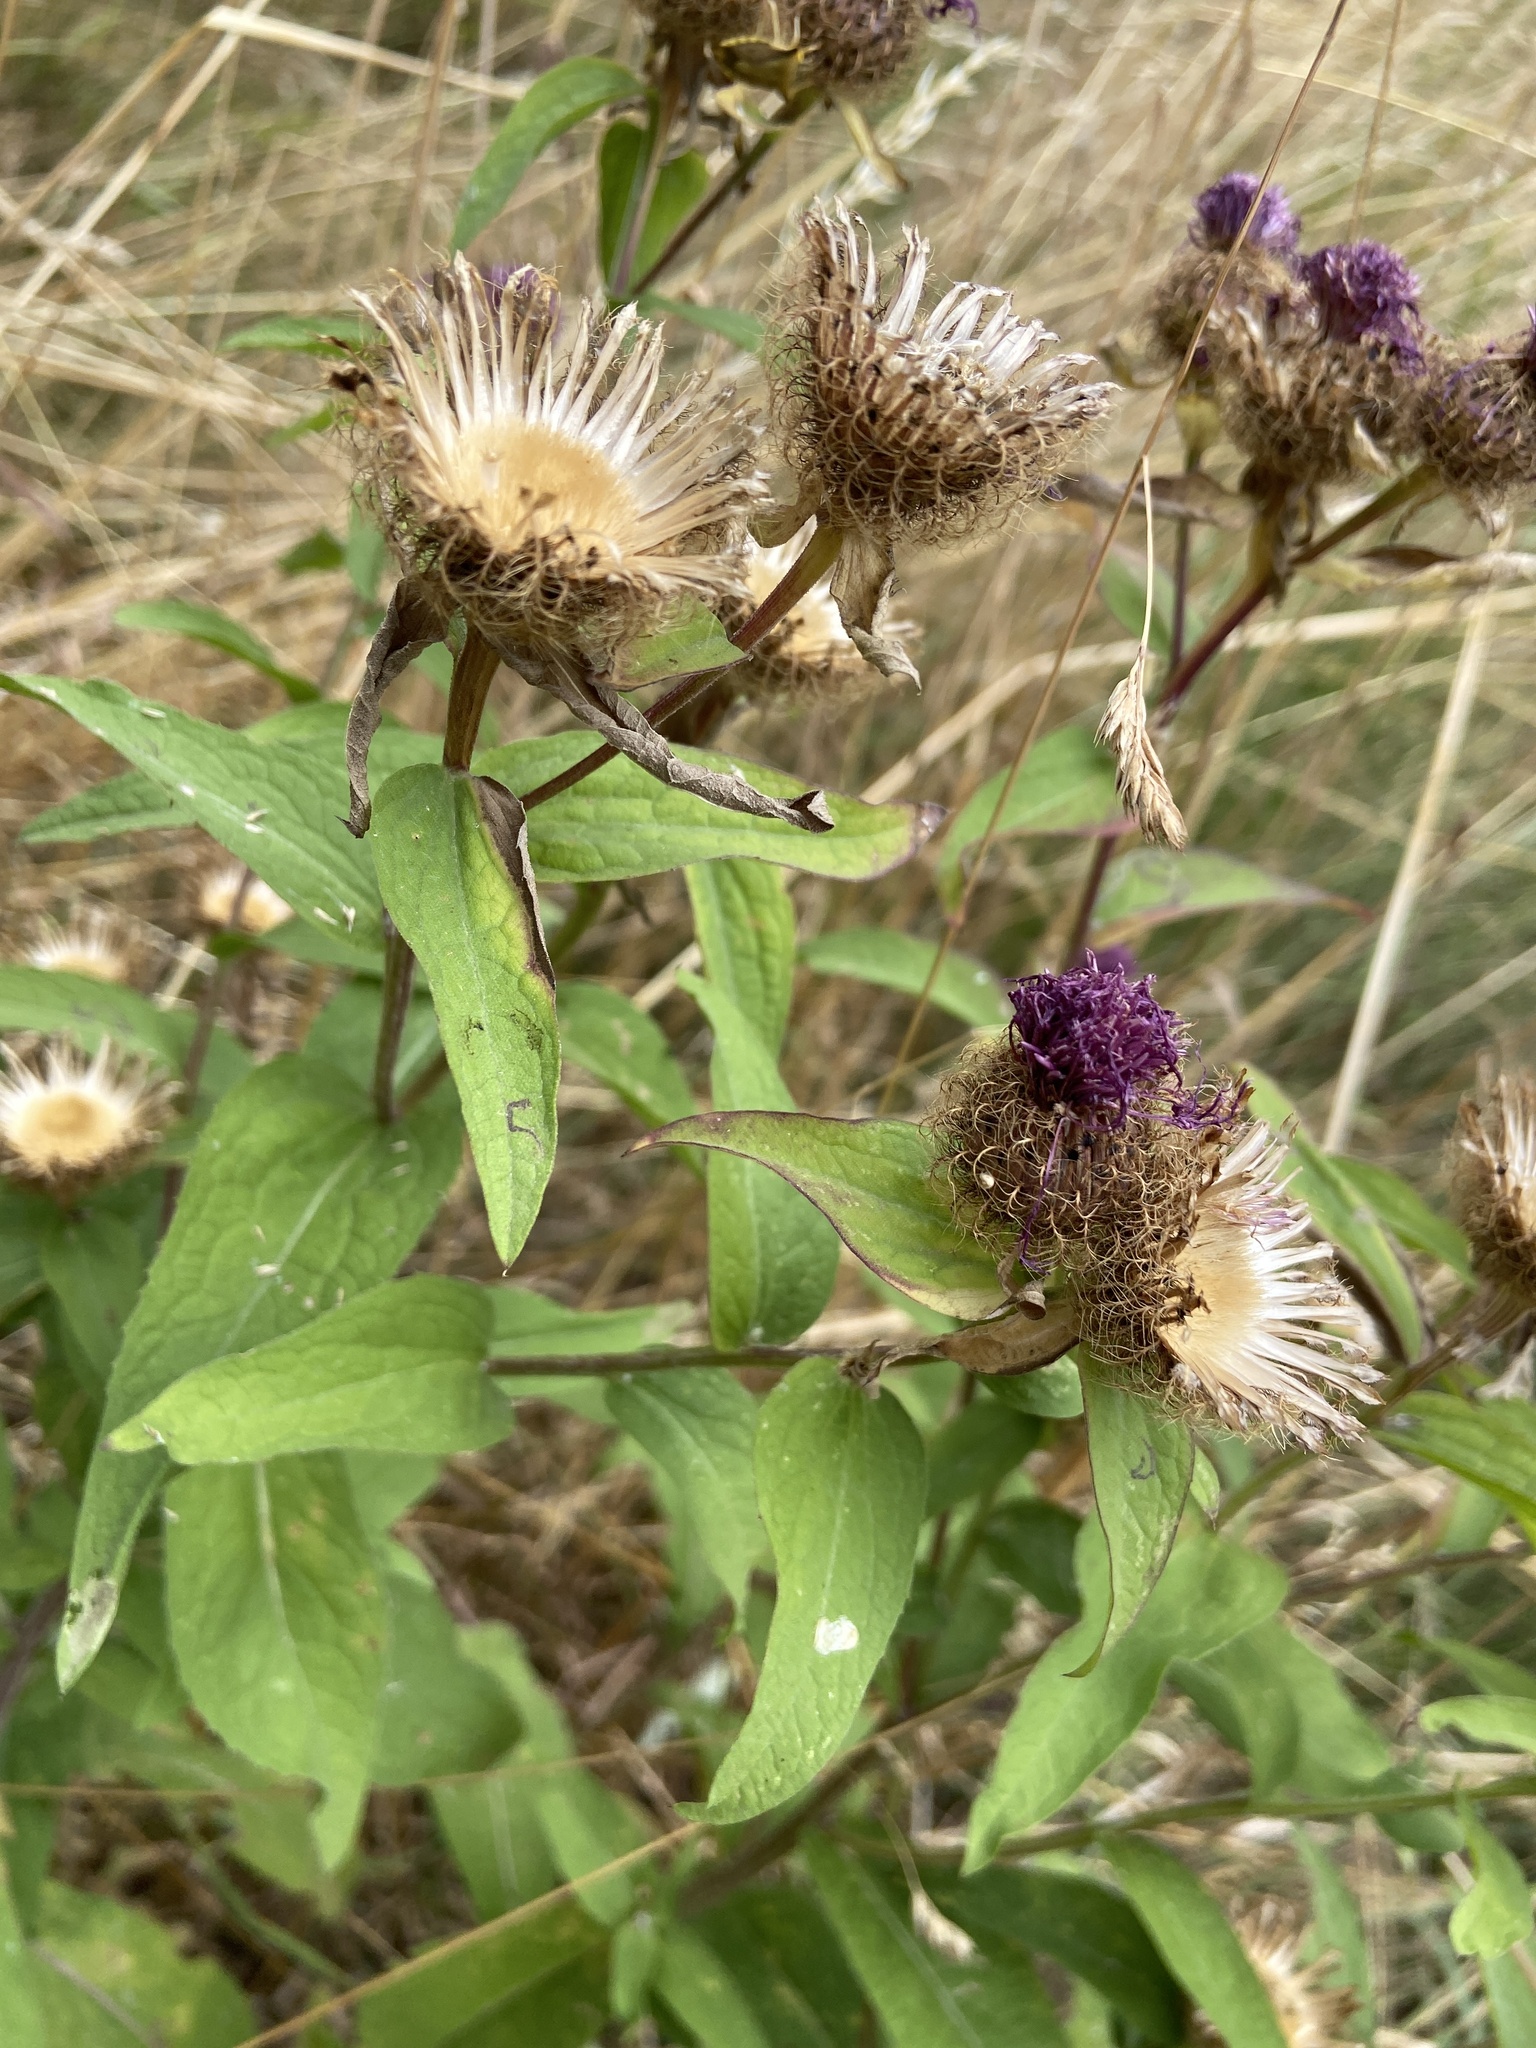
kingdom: Plantae
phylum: Tracheophyta
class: Magnoliopsida
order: Asterales
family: Asteraceae
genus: Centaurea
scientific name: Centaurea phrygia
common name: Wig knapweed
